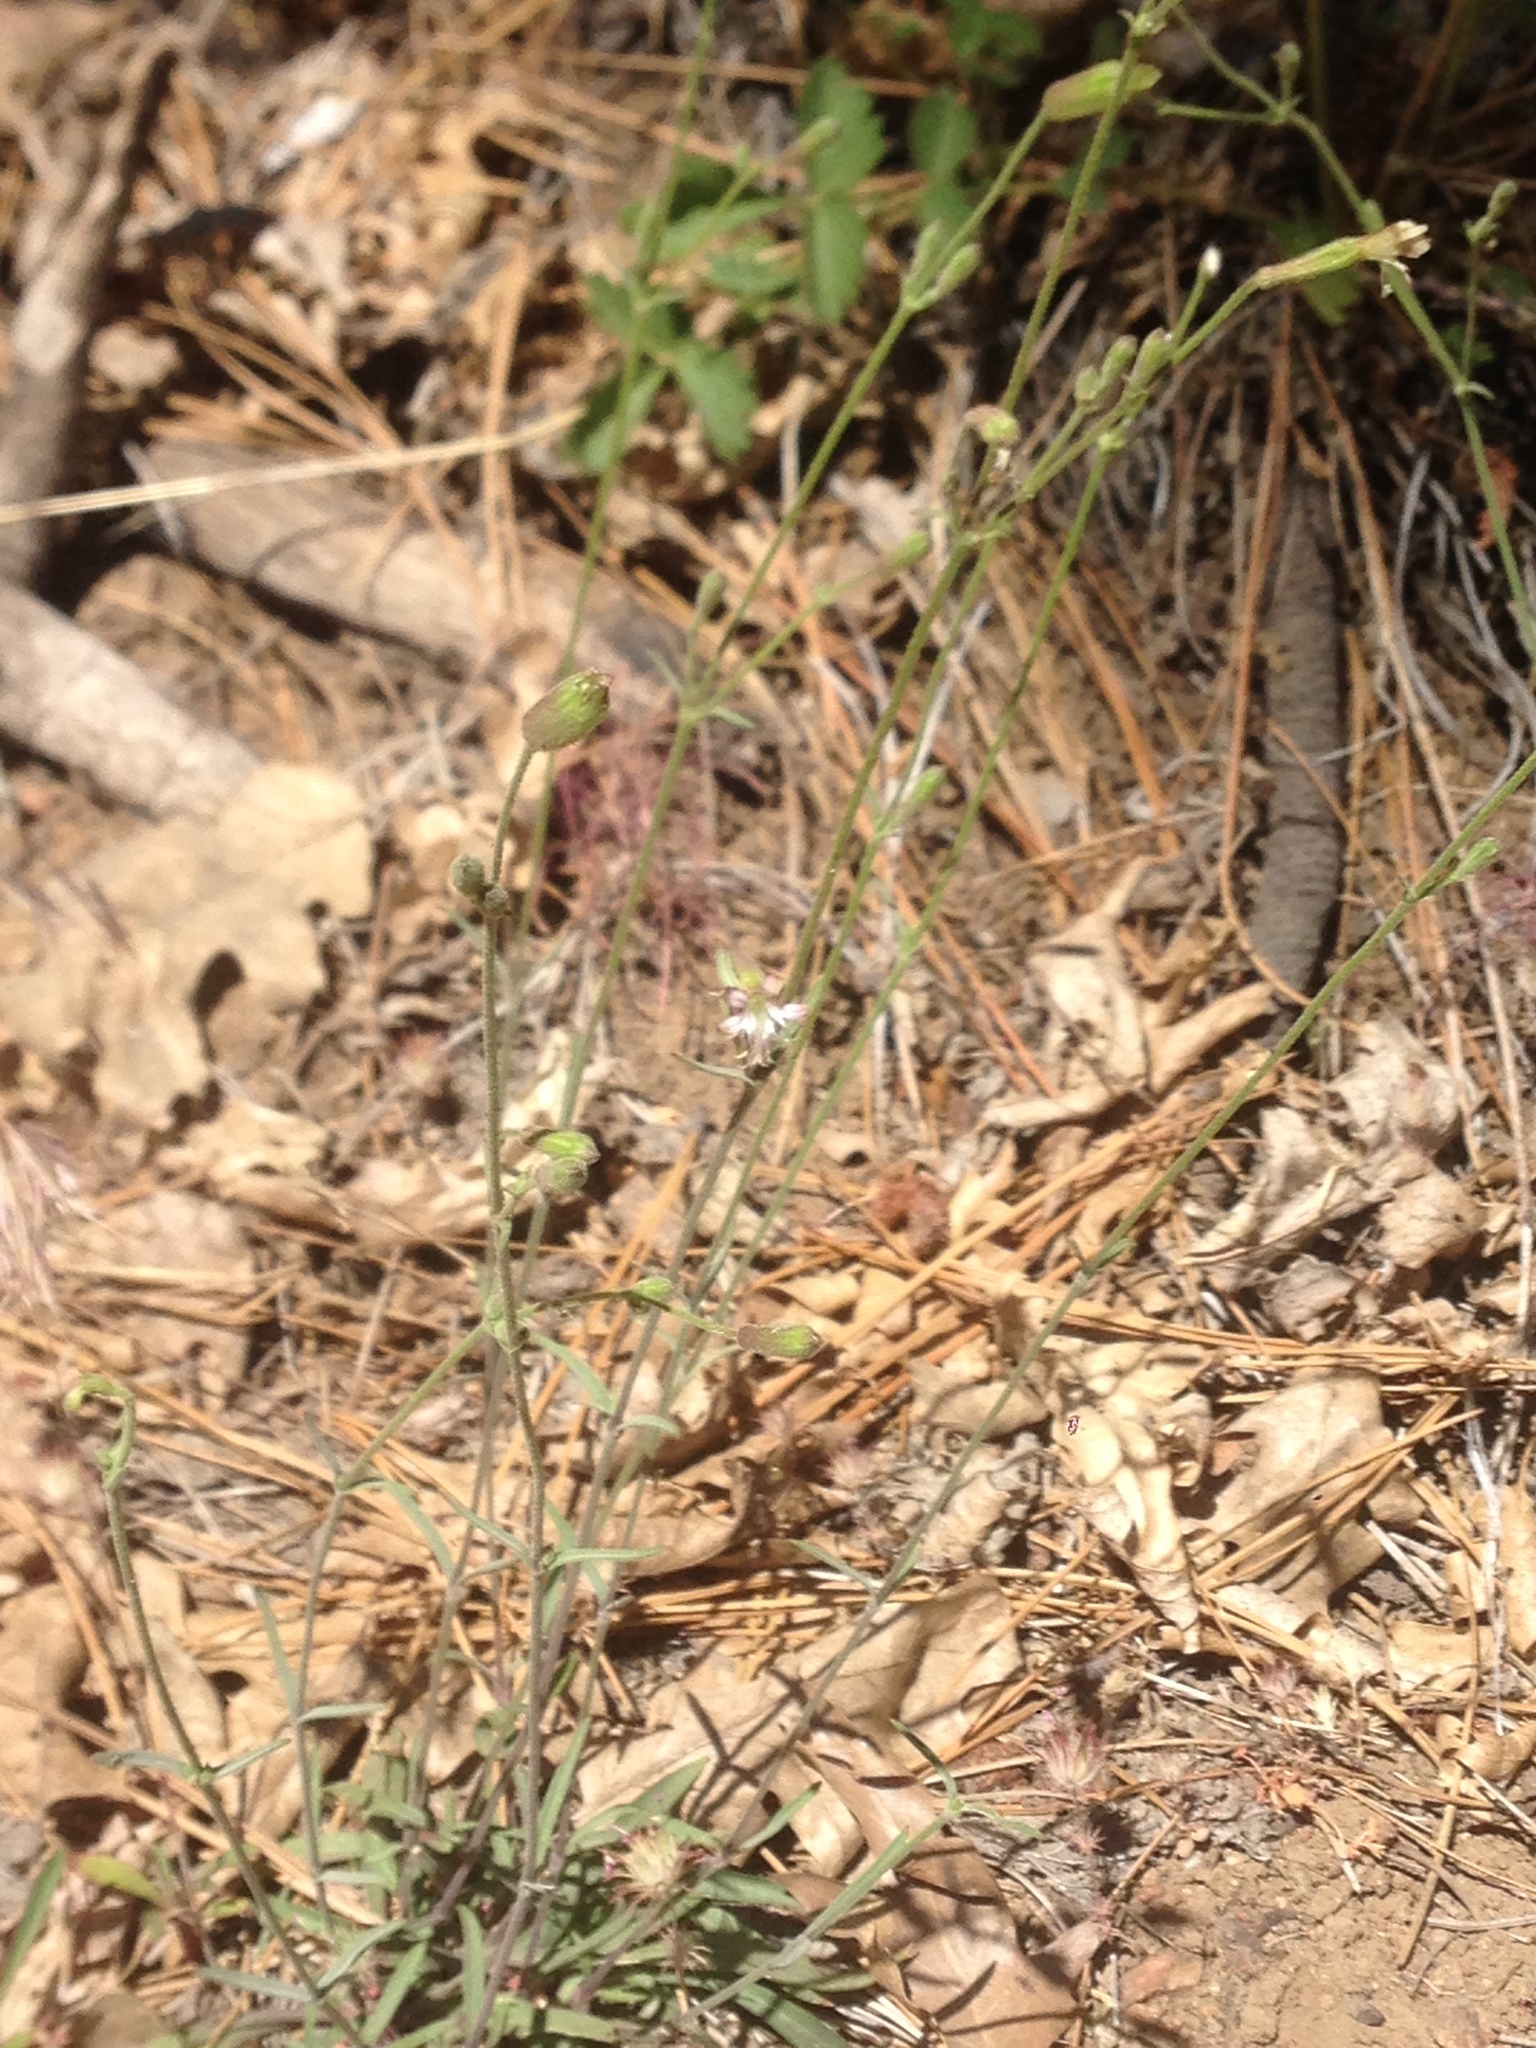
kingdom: Plantae
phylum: Tracheophyta
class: Magnoliopsida
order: Caryophyllales
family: Caryophyllaceae
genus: Silene
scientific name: Silene verecunda
